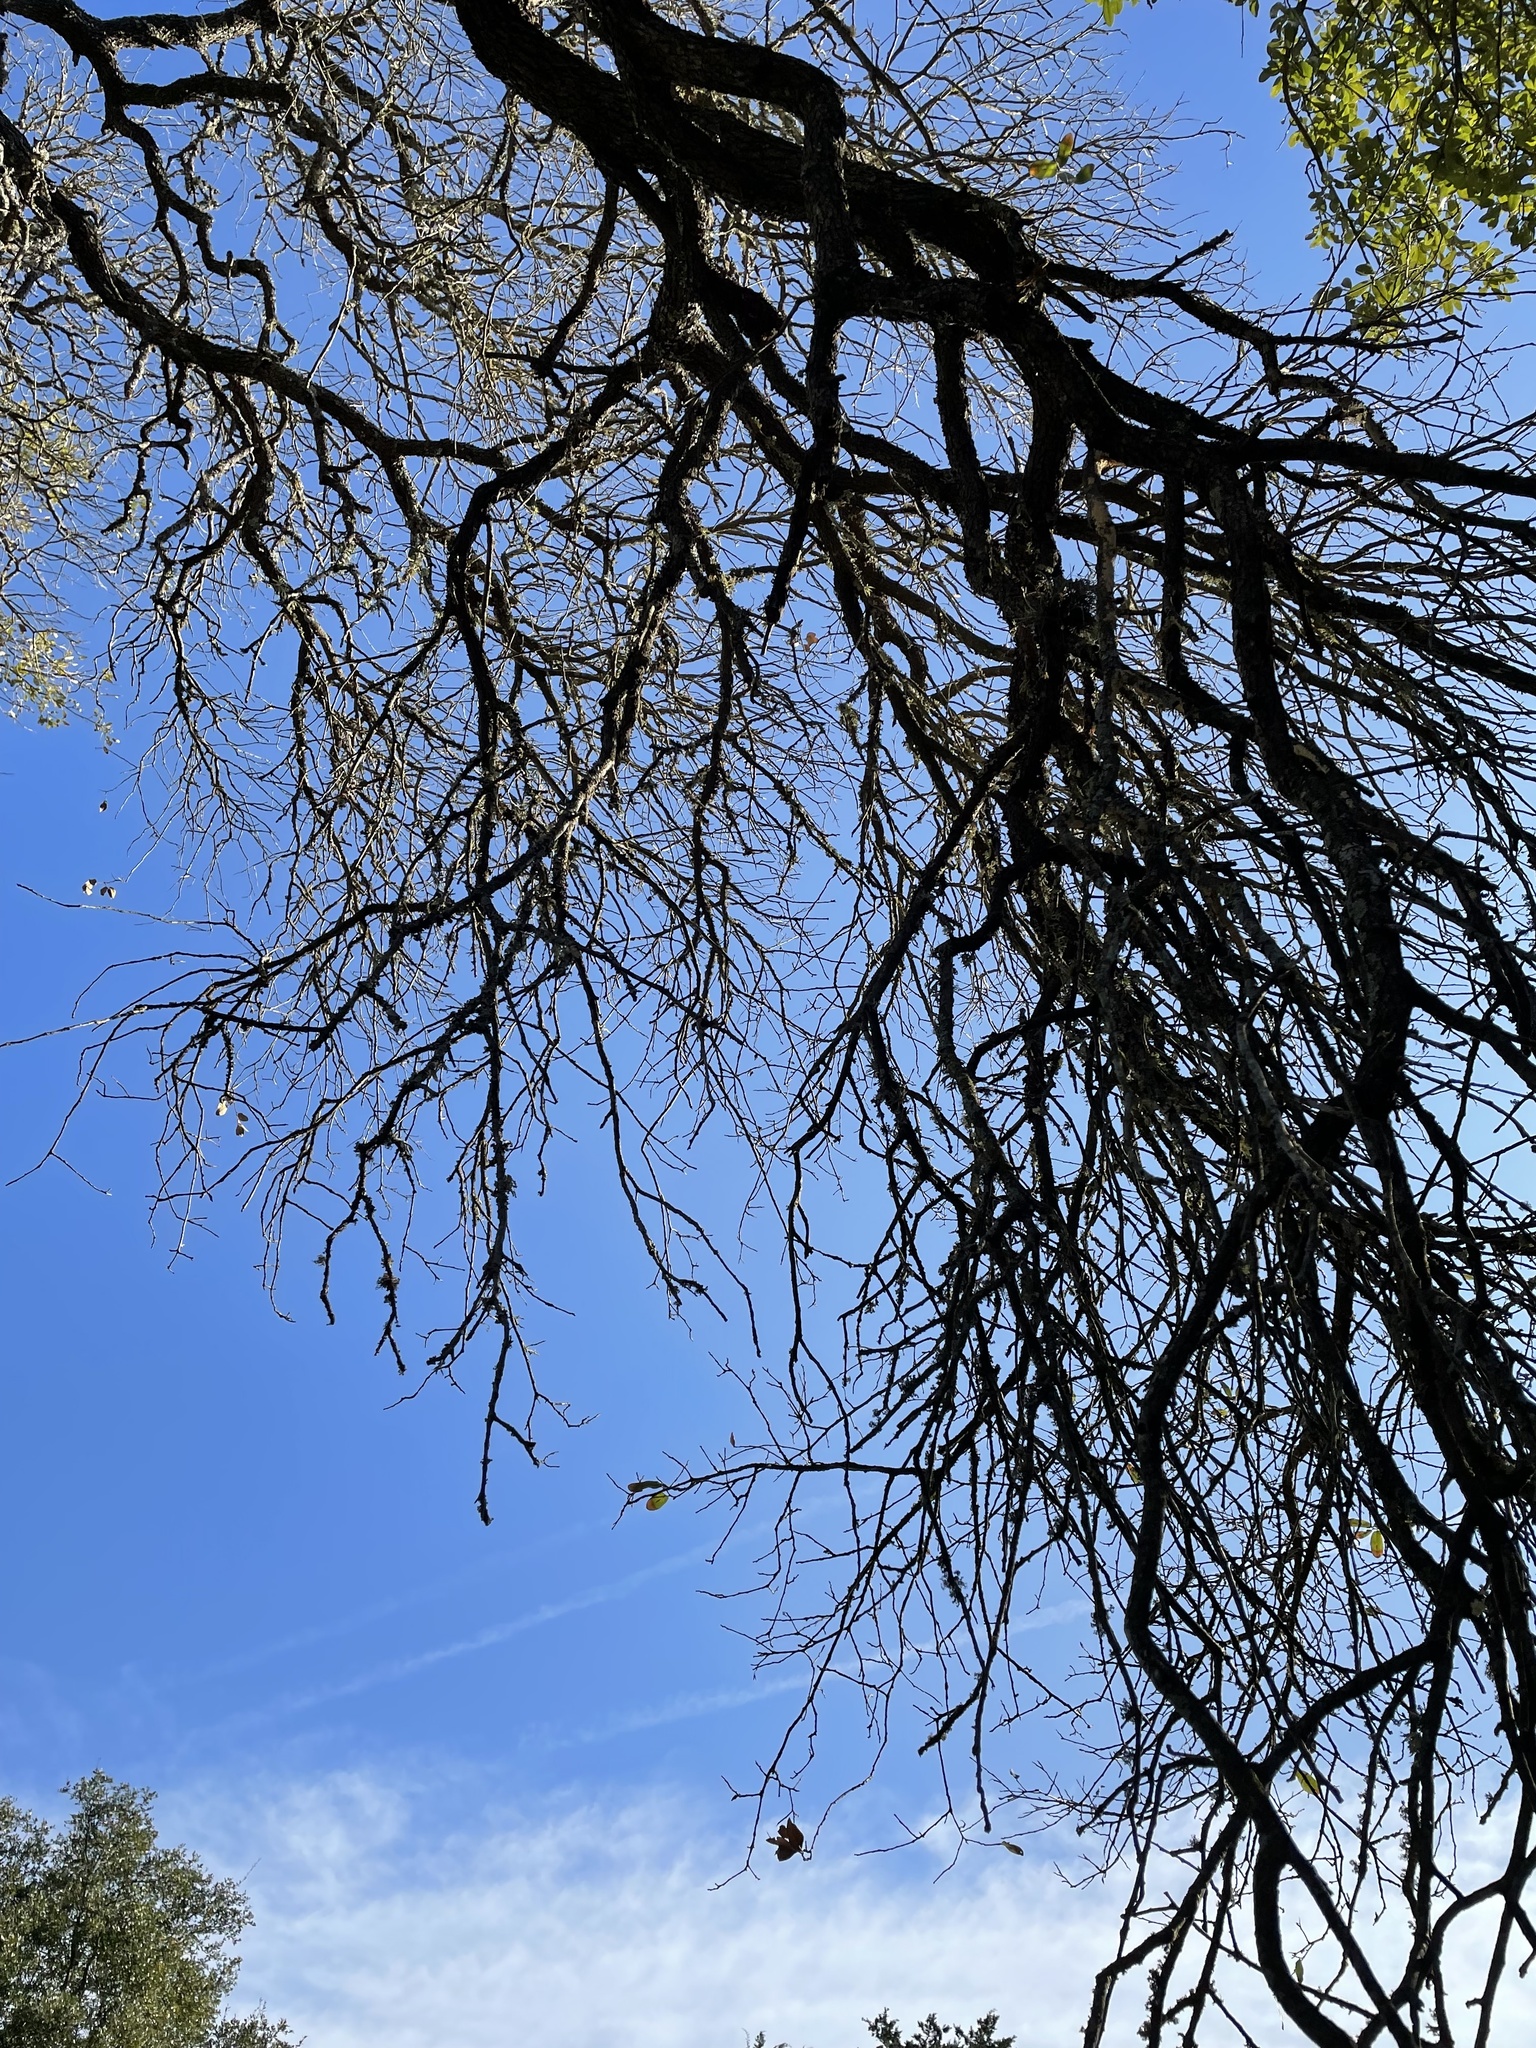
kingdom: Fungi
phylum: Ascomycota
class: Sordariomycetes
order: Microascales
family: Ceratocystidaceae
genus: Ceratocystis
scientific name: Ceratocystis fagacearum
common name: Oak wilt fungus
